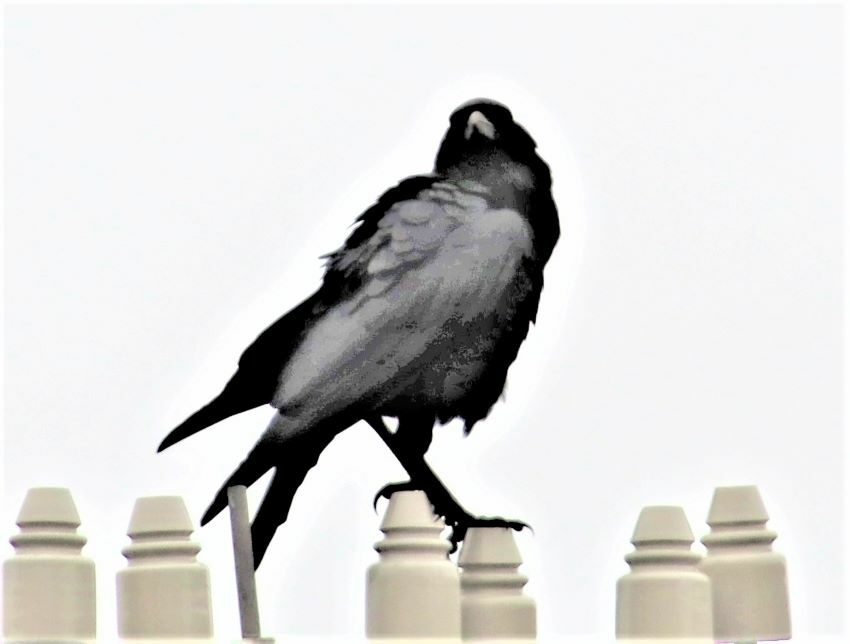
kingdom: Animalia
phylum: Chordata
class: Aves
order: Passeriformes
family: Corvidae
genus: Corvus
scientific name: Corvus capensis
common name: Cape crow
